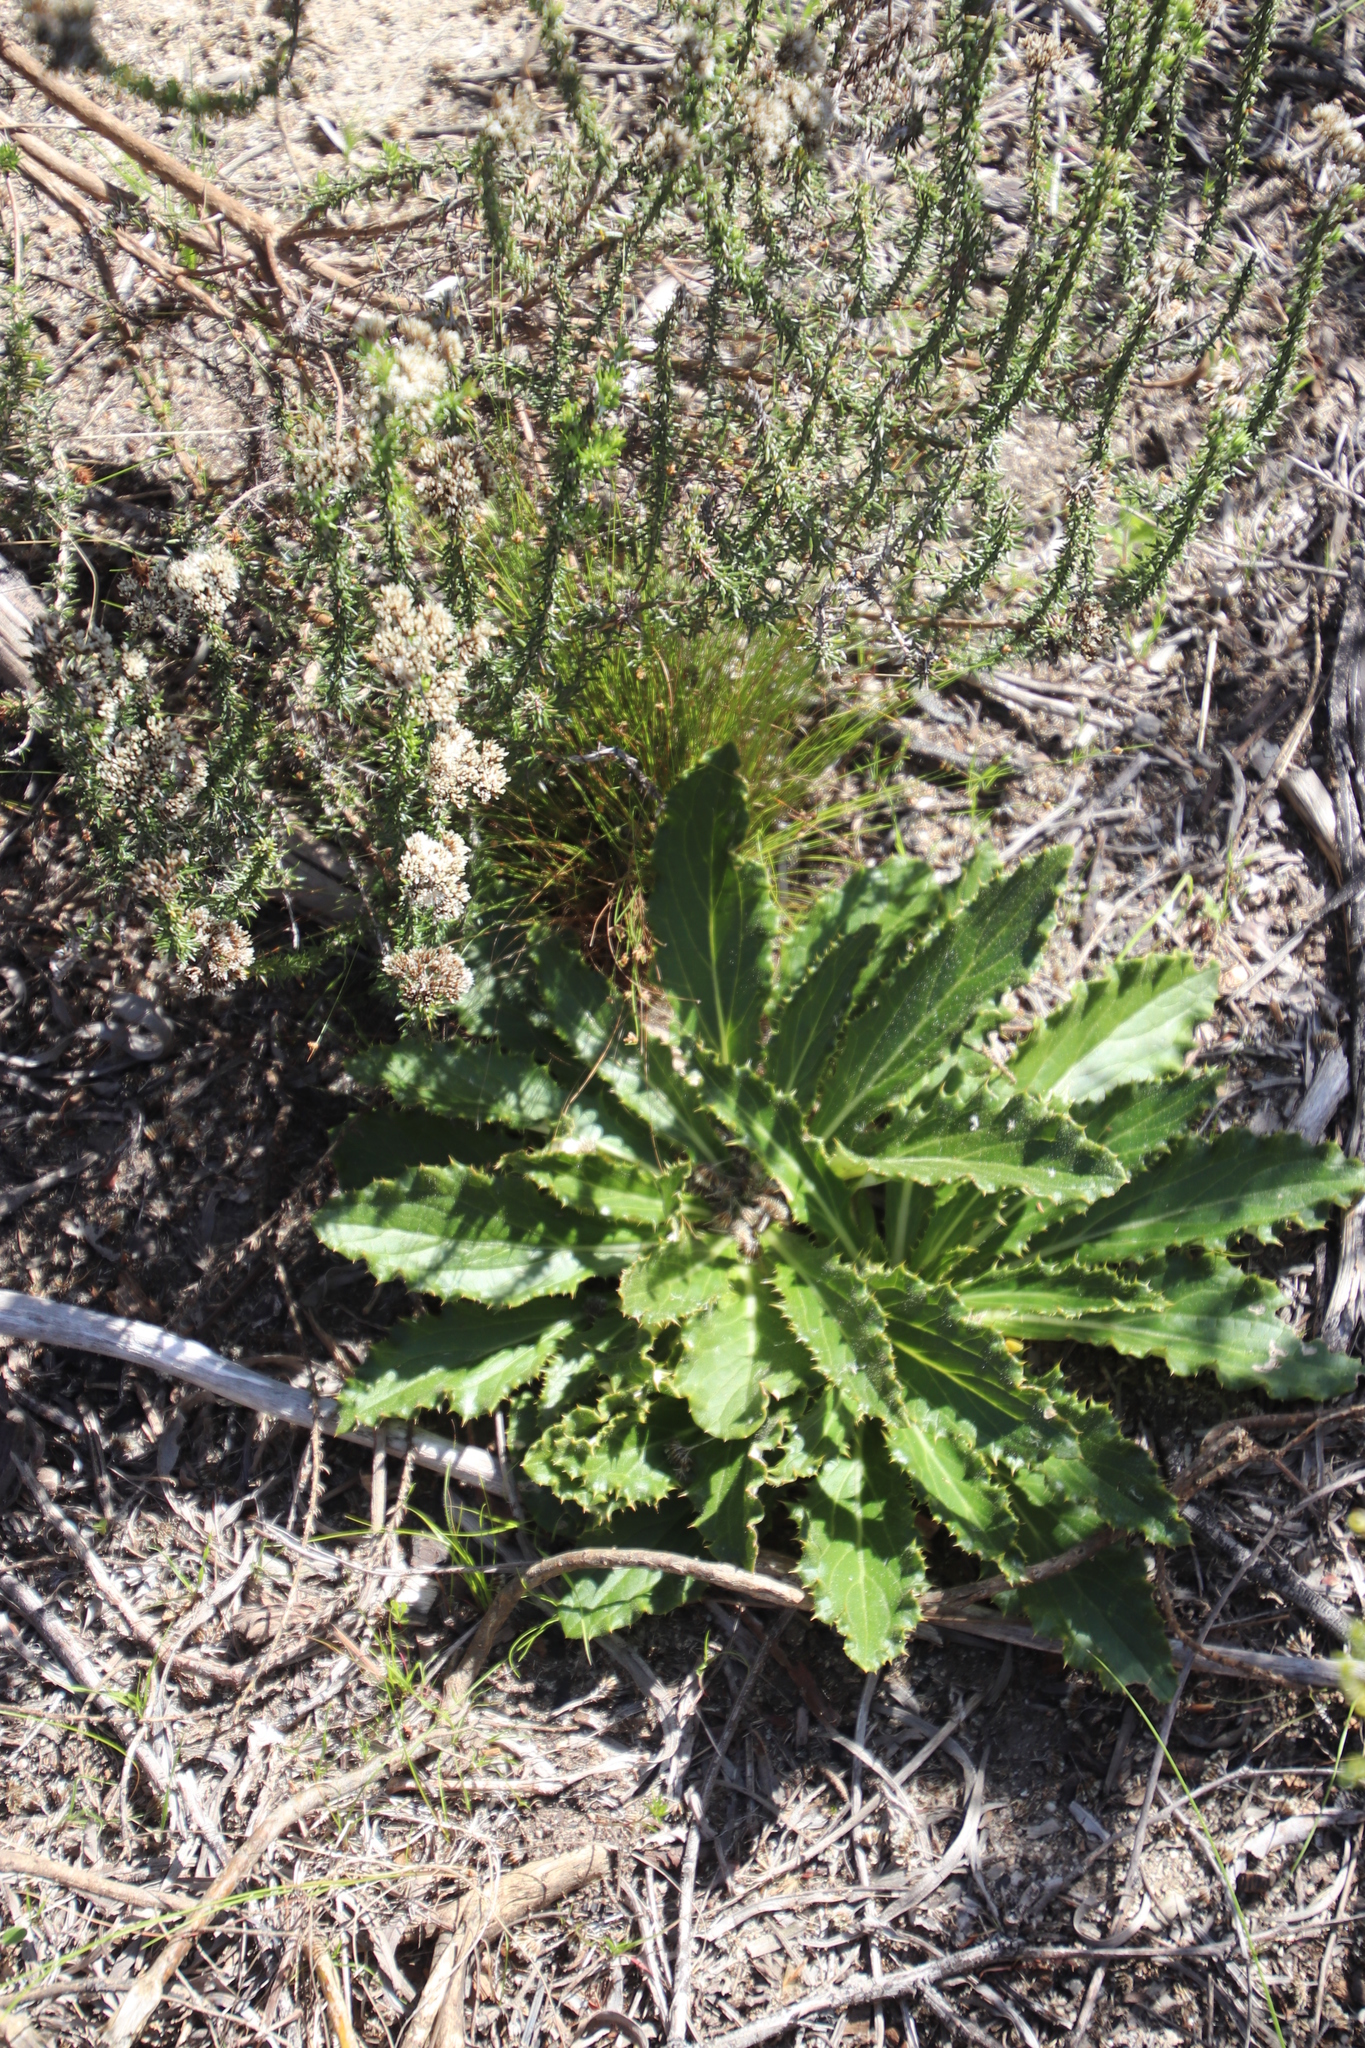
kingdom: Plantae
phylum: Tracheophyta
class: Magnoliopsida
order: Asterales
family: Asteraceae
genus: Berkheya
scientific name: Berkheya armata
